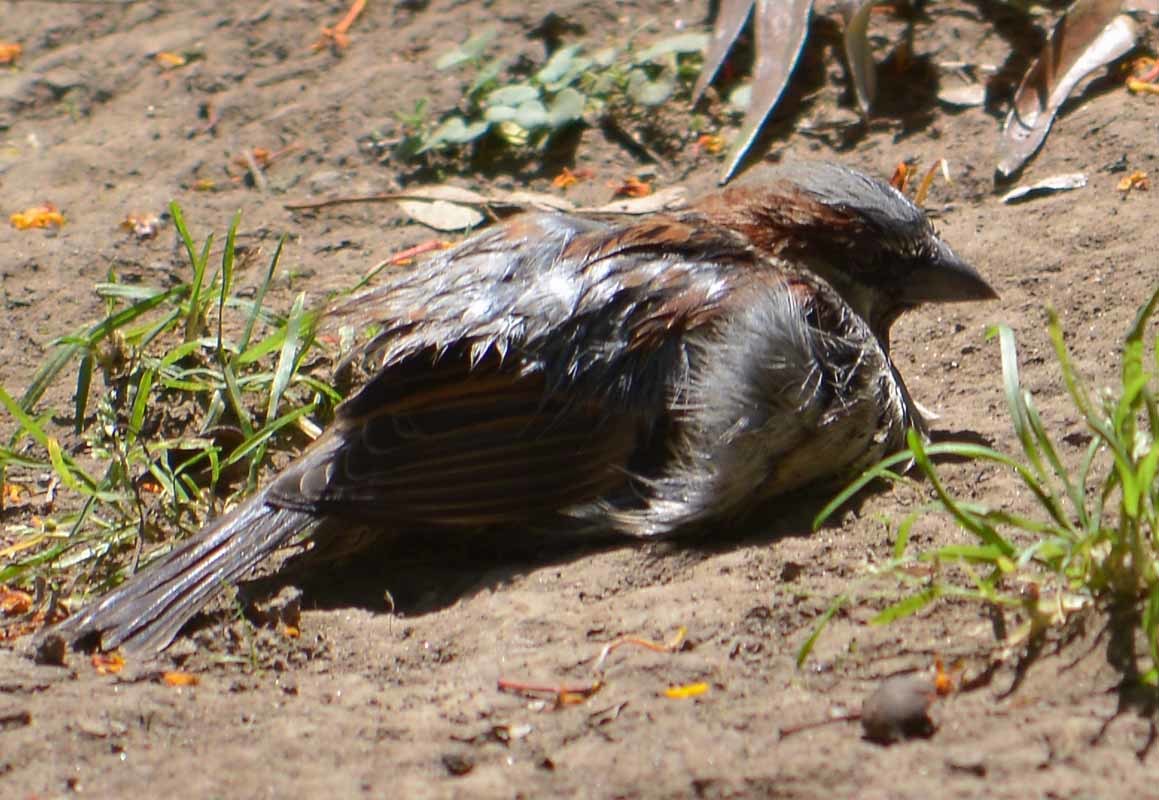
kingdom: Animalia
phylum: Chordata
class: Aves
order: Passeriformes
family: Passeridae
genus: Passer
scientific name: Passer domesticus
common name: House sparrow
